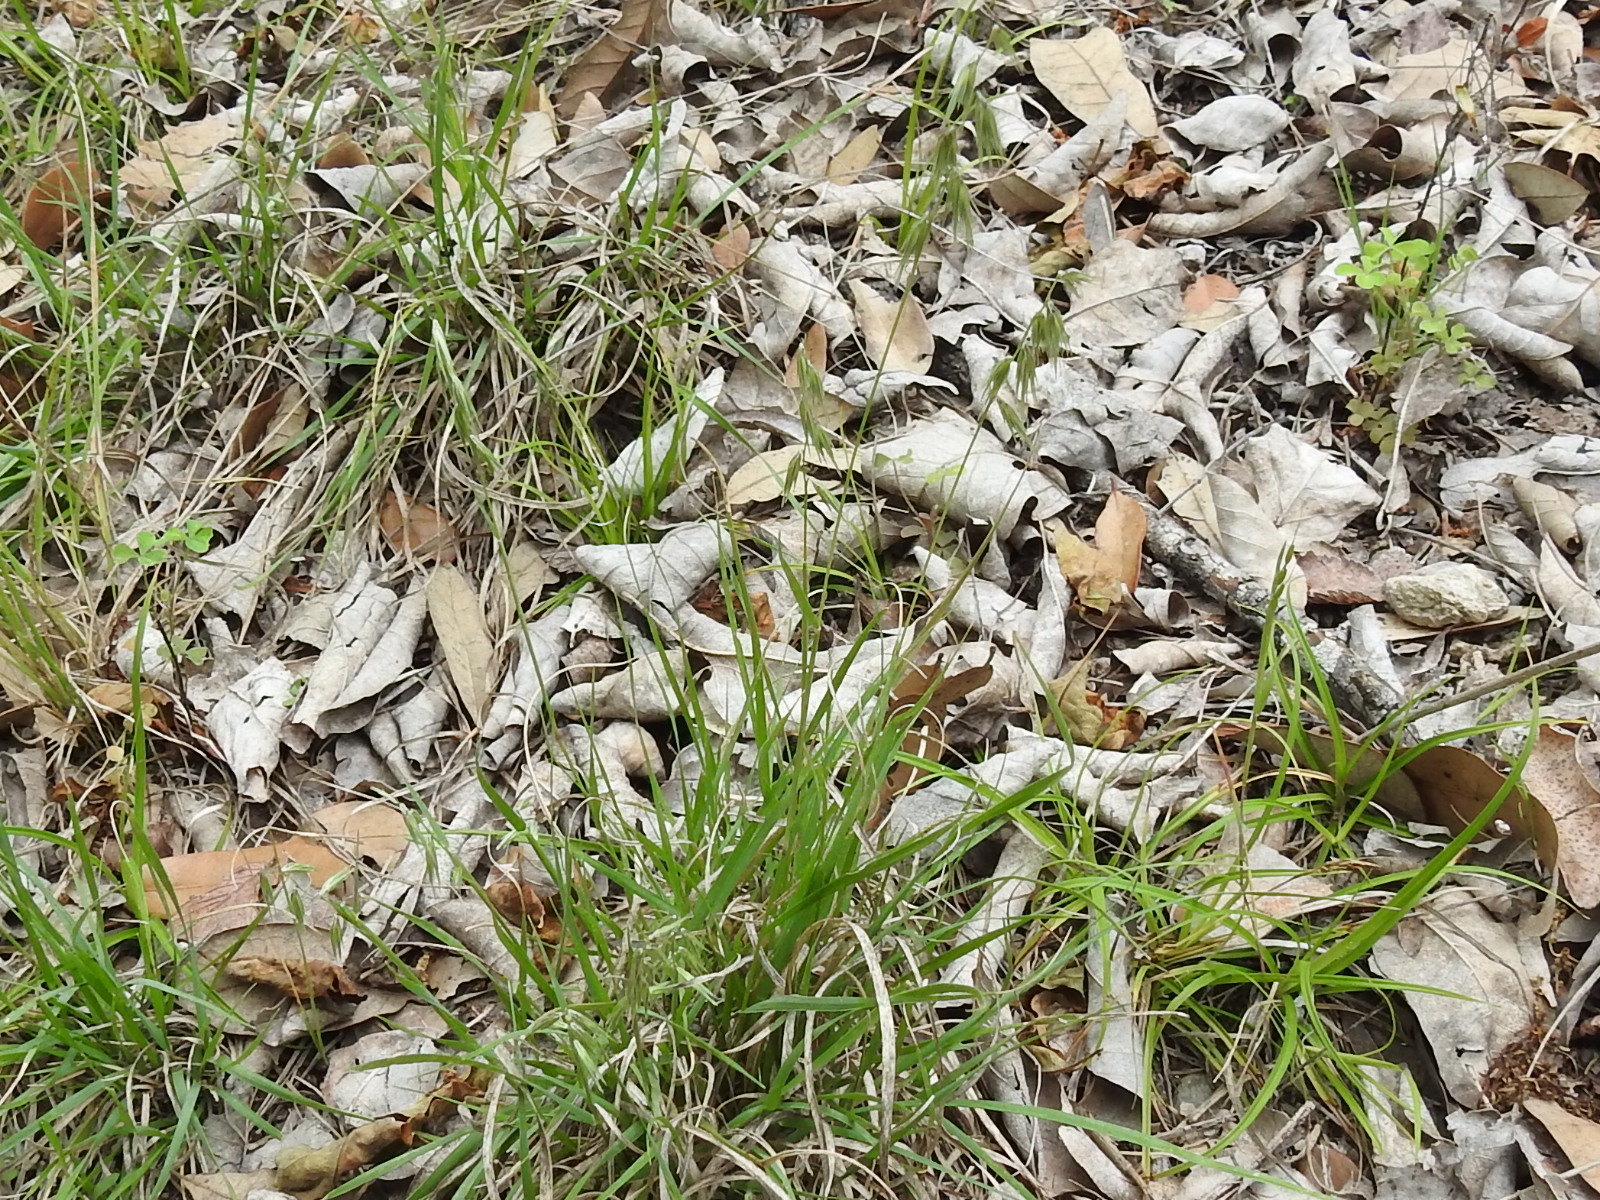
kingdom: Plantae
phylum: Tracheophyta
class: Liliopsida
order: Poales
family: Poaceae
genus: Bouteloua
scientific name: Bouteloua rigidiseta
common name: Texas grama
